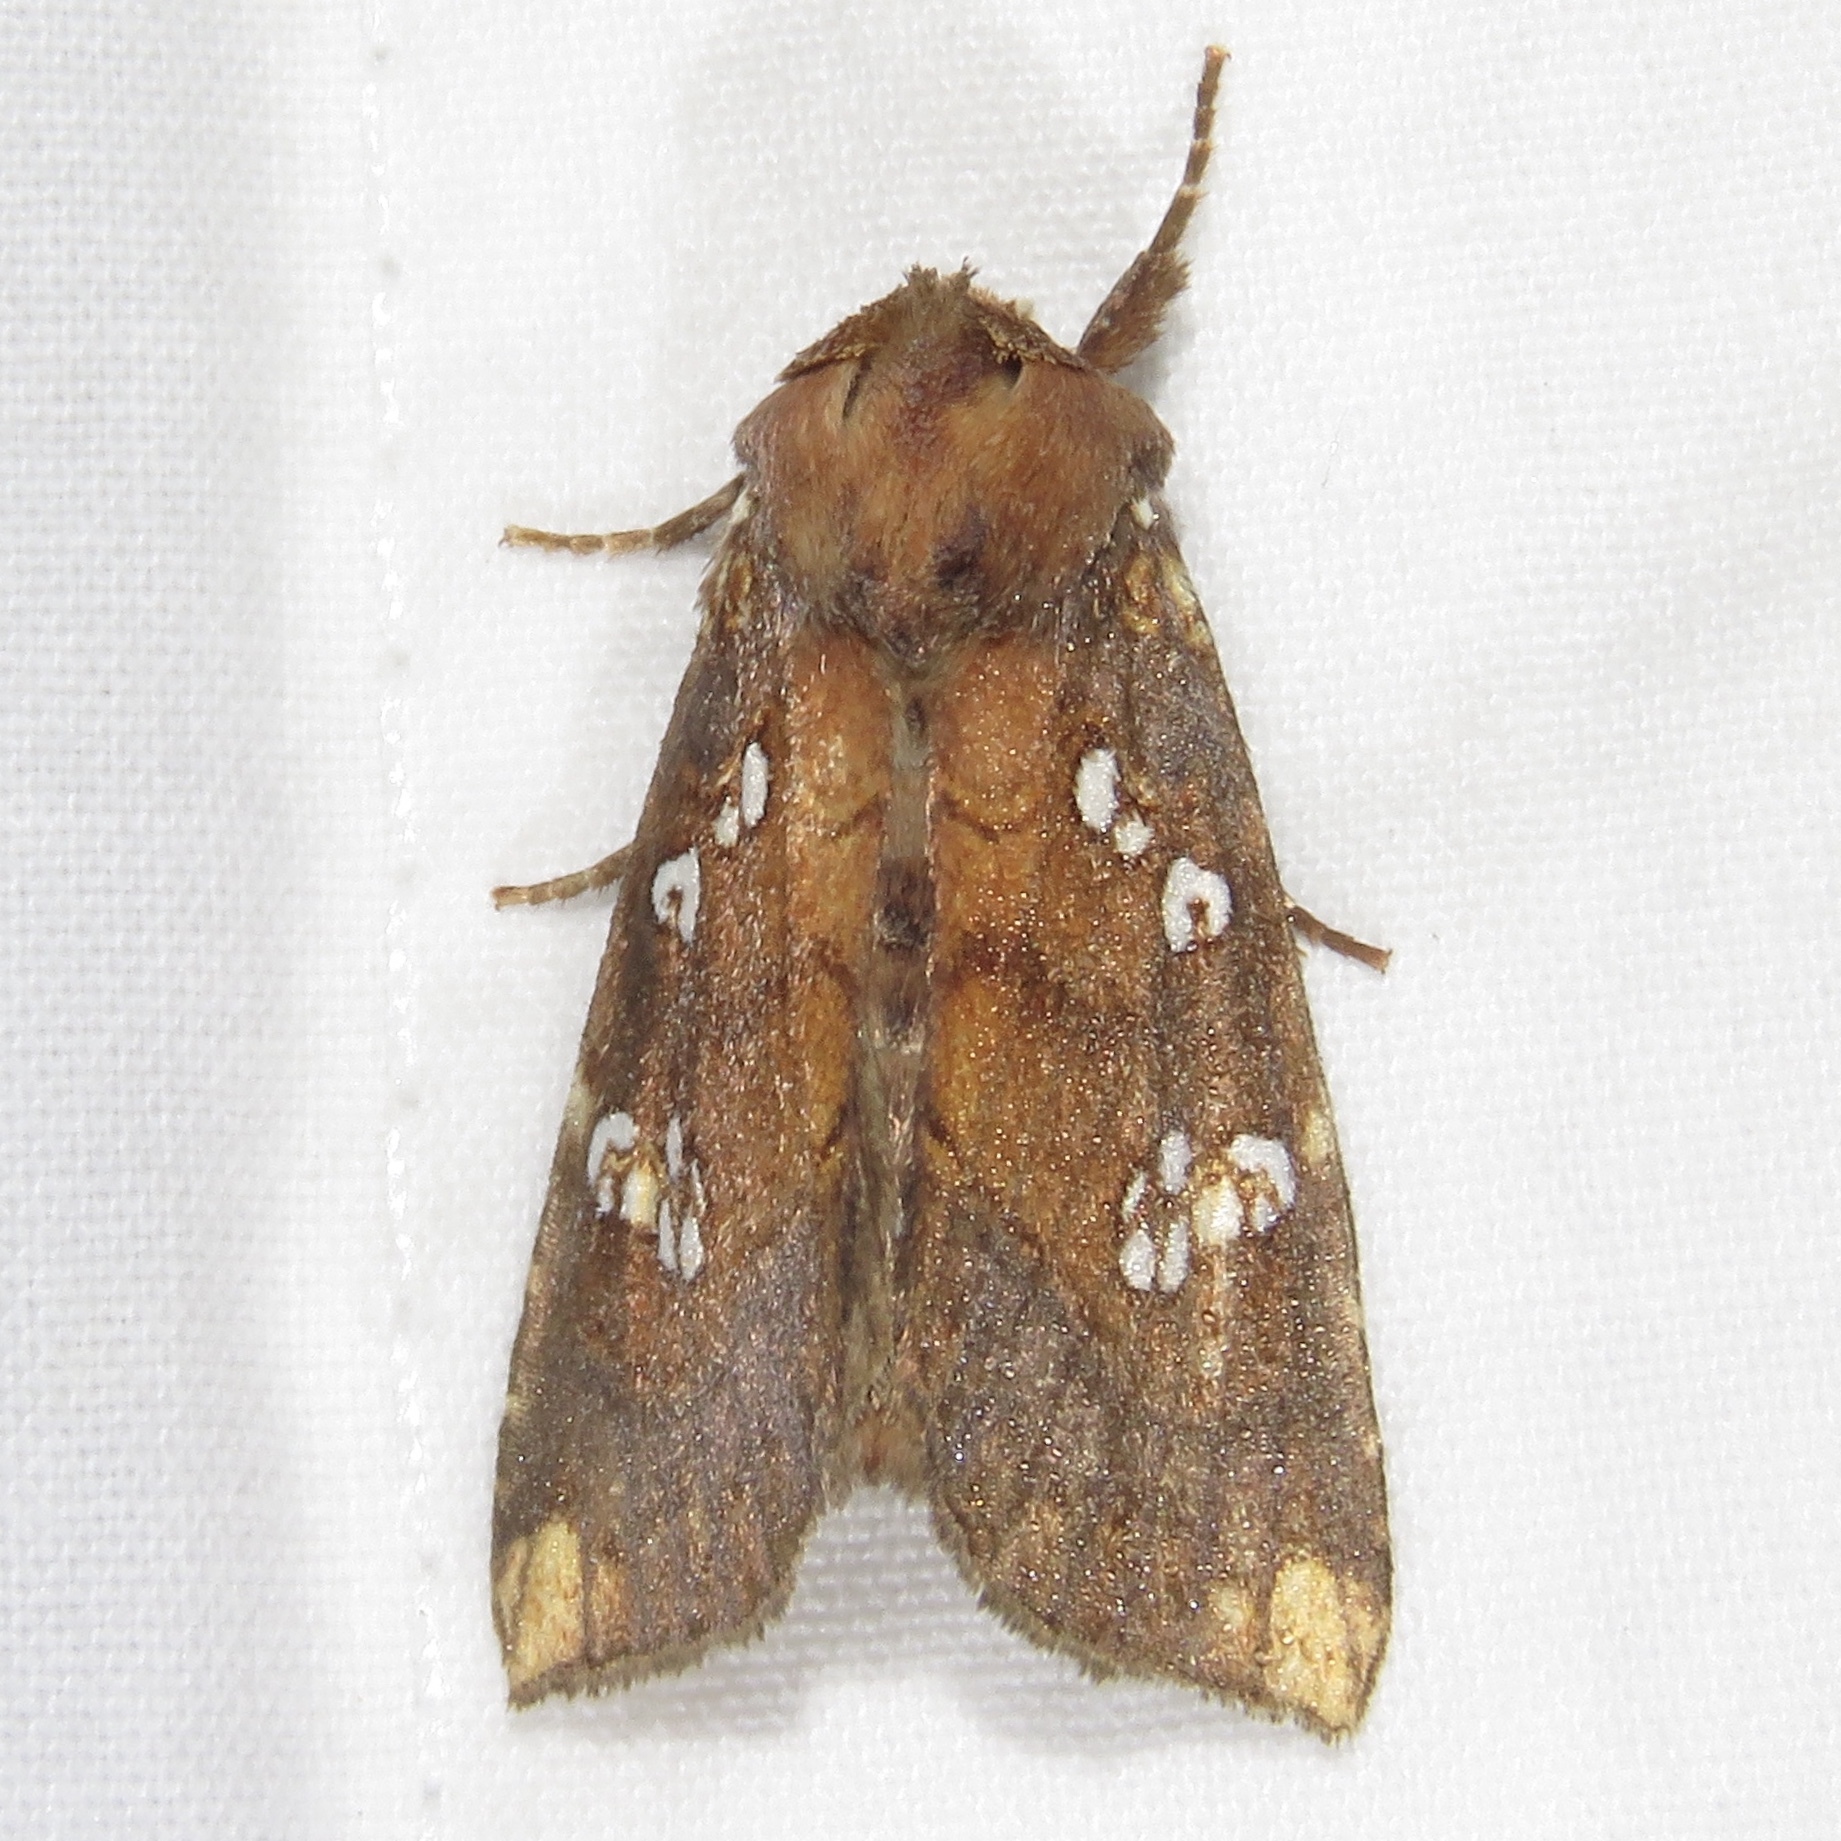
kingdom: Animalia
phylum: Arthropoda
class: Insecta
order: Lepidoptera
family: Noctuidae
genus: Papaipema
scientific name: Papaipema nepheleptena
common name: Turtle head borer moth
